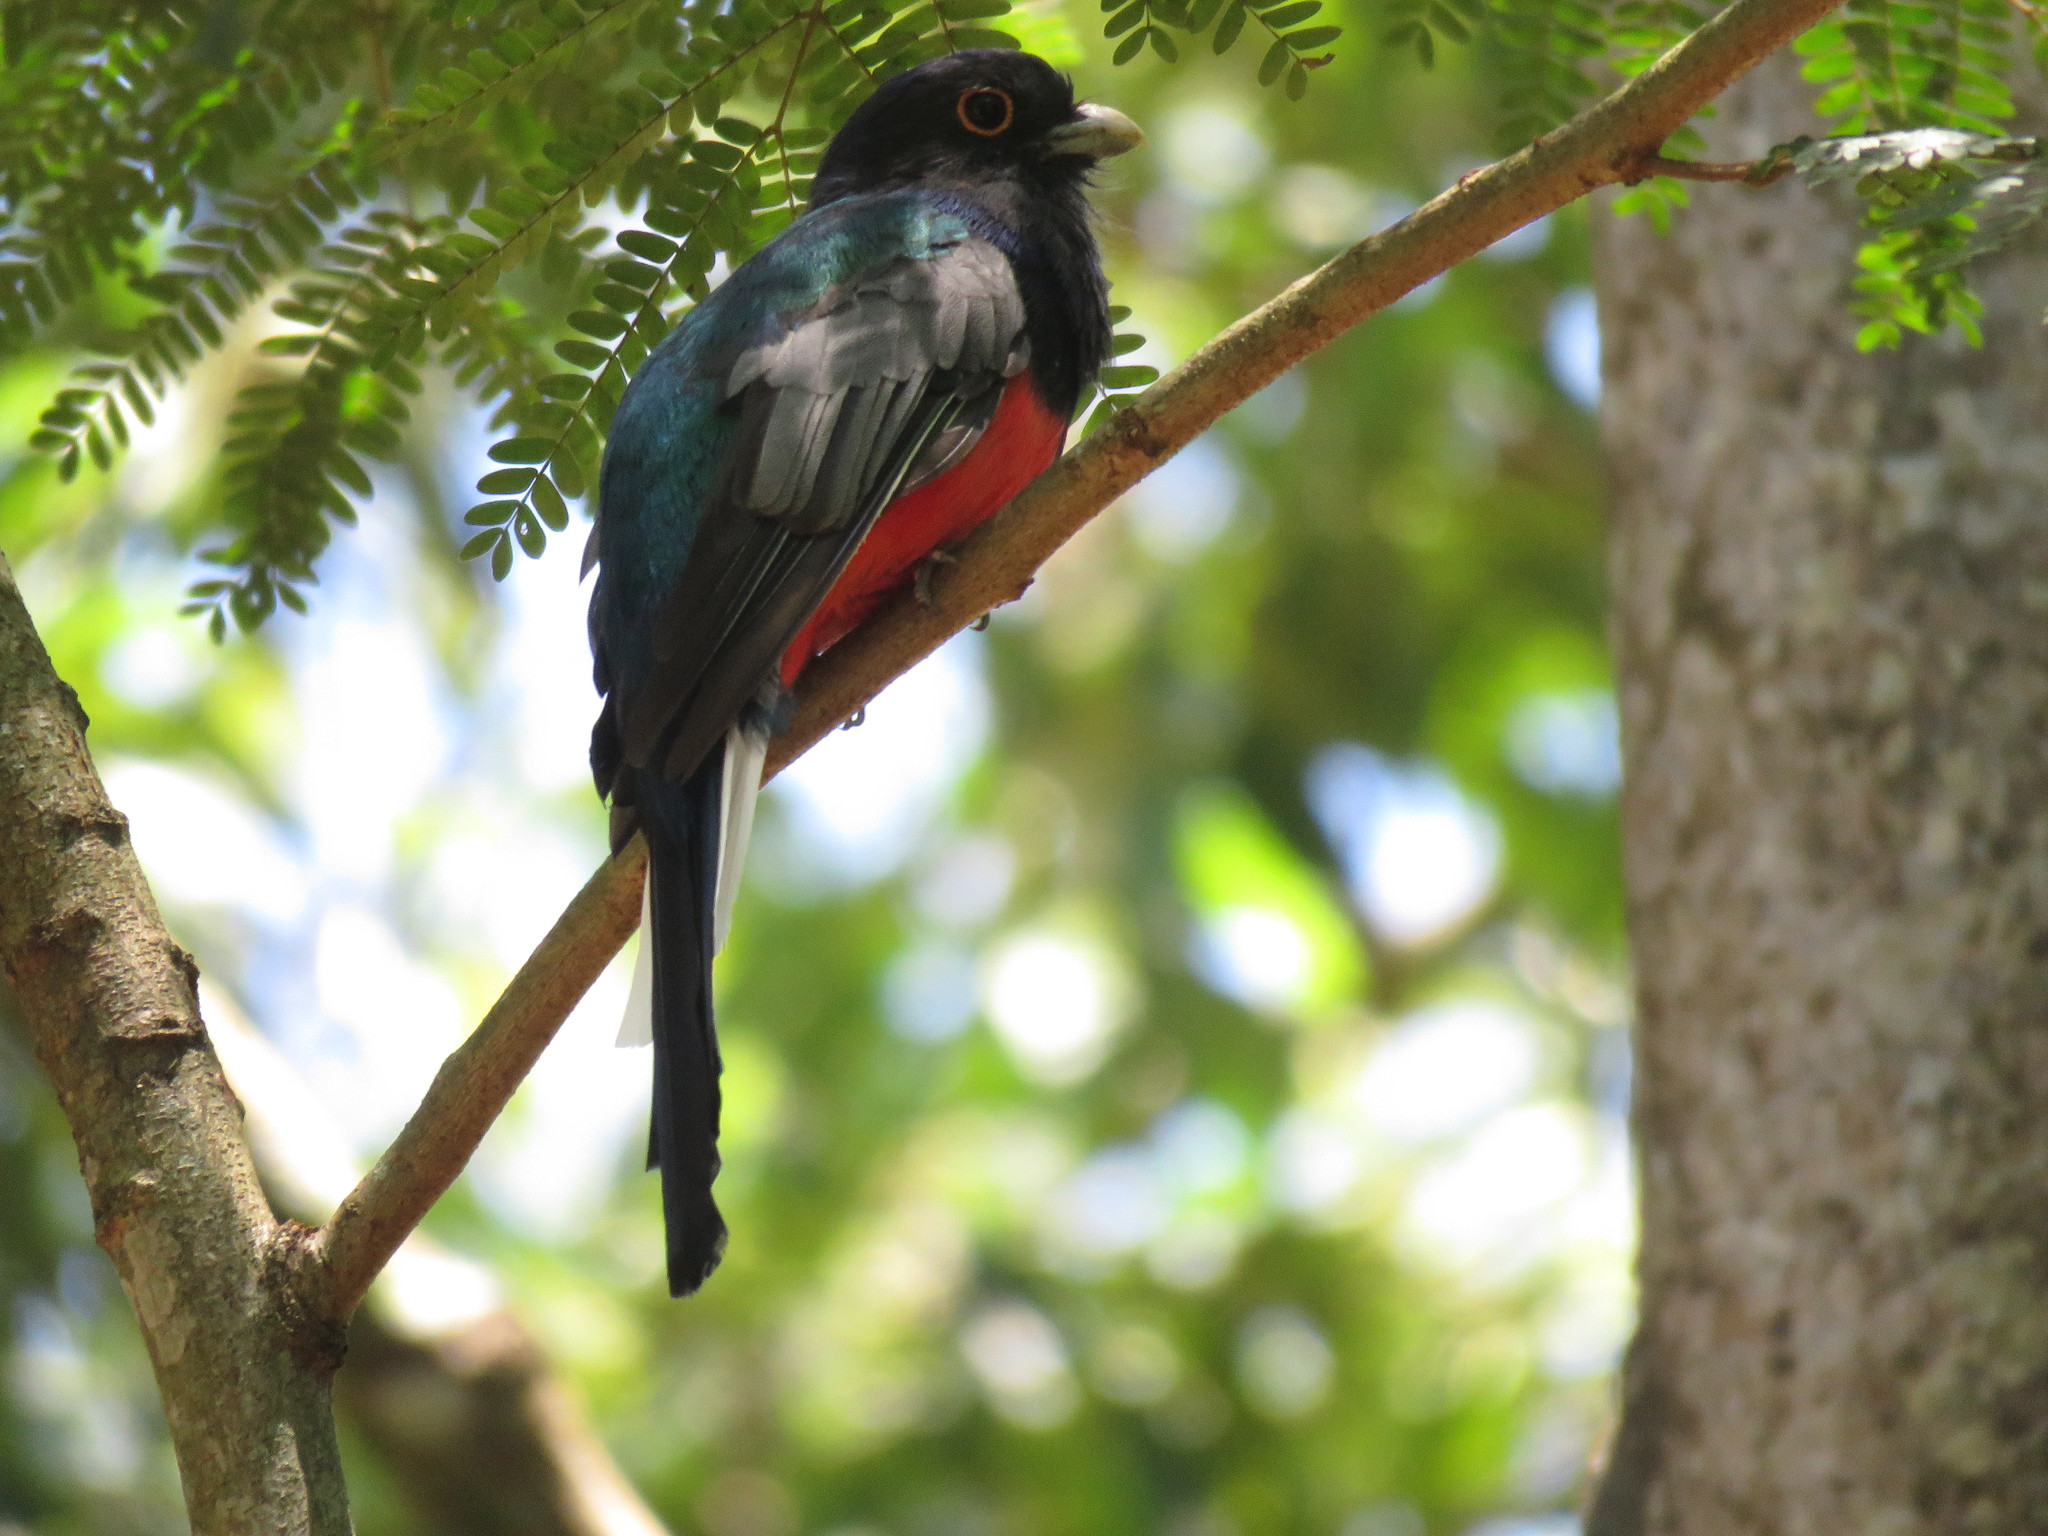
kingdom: Animalia
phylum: Chordata
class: Aves
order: Trogoniformes
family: Trogonidae
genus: Trogon
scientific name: Trogon surrucura
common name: Surucua trogon
